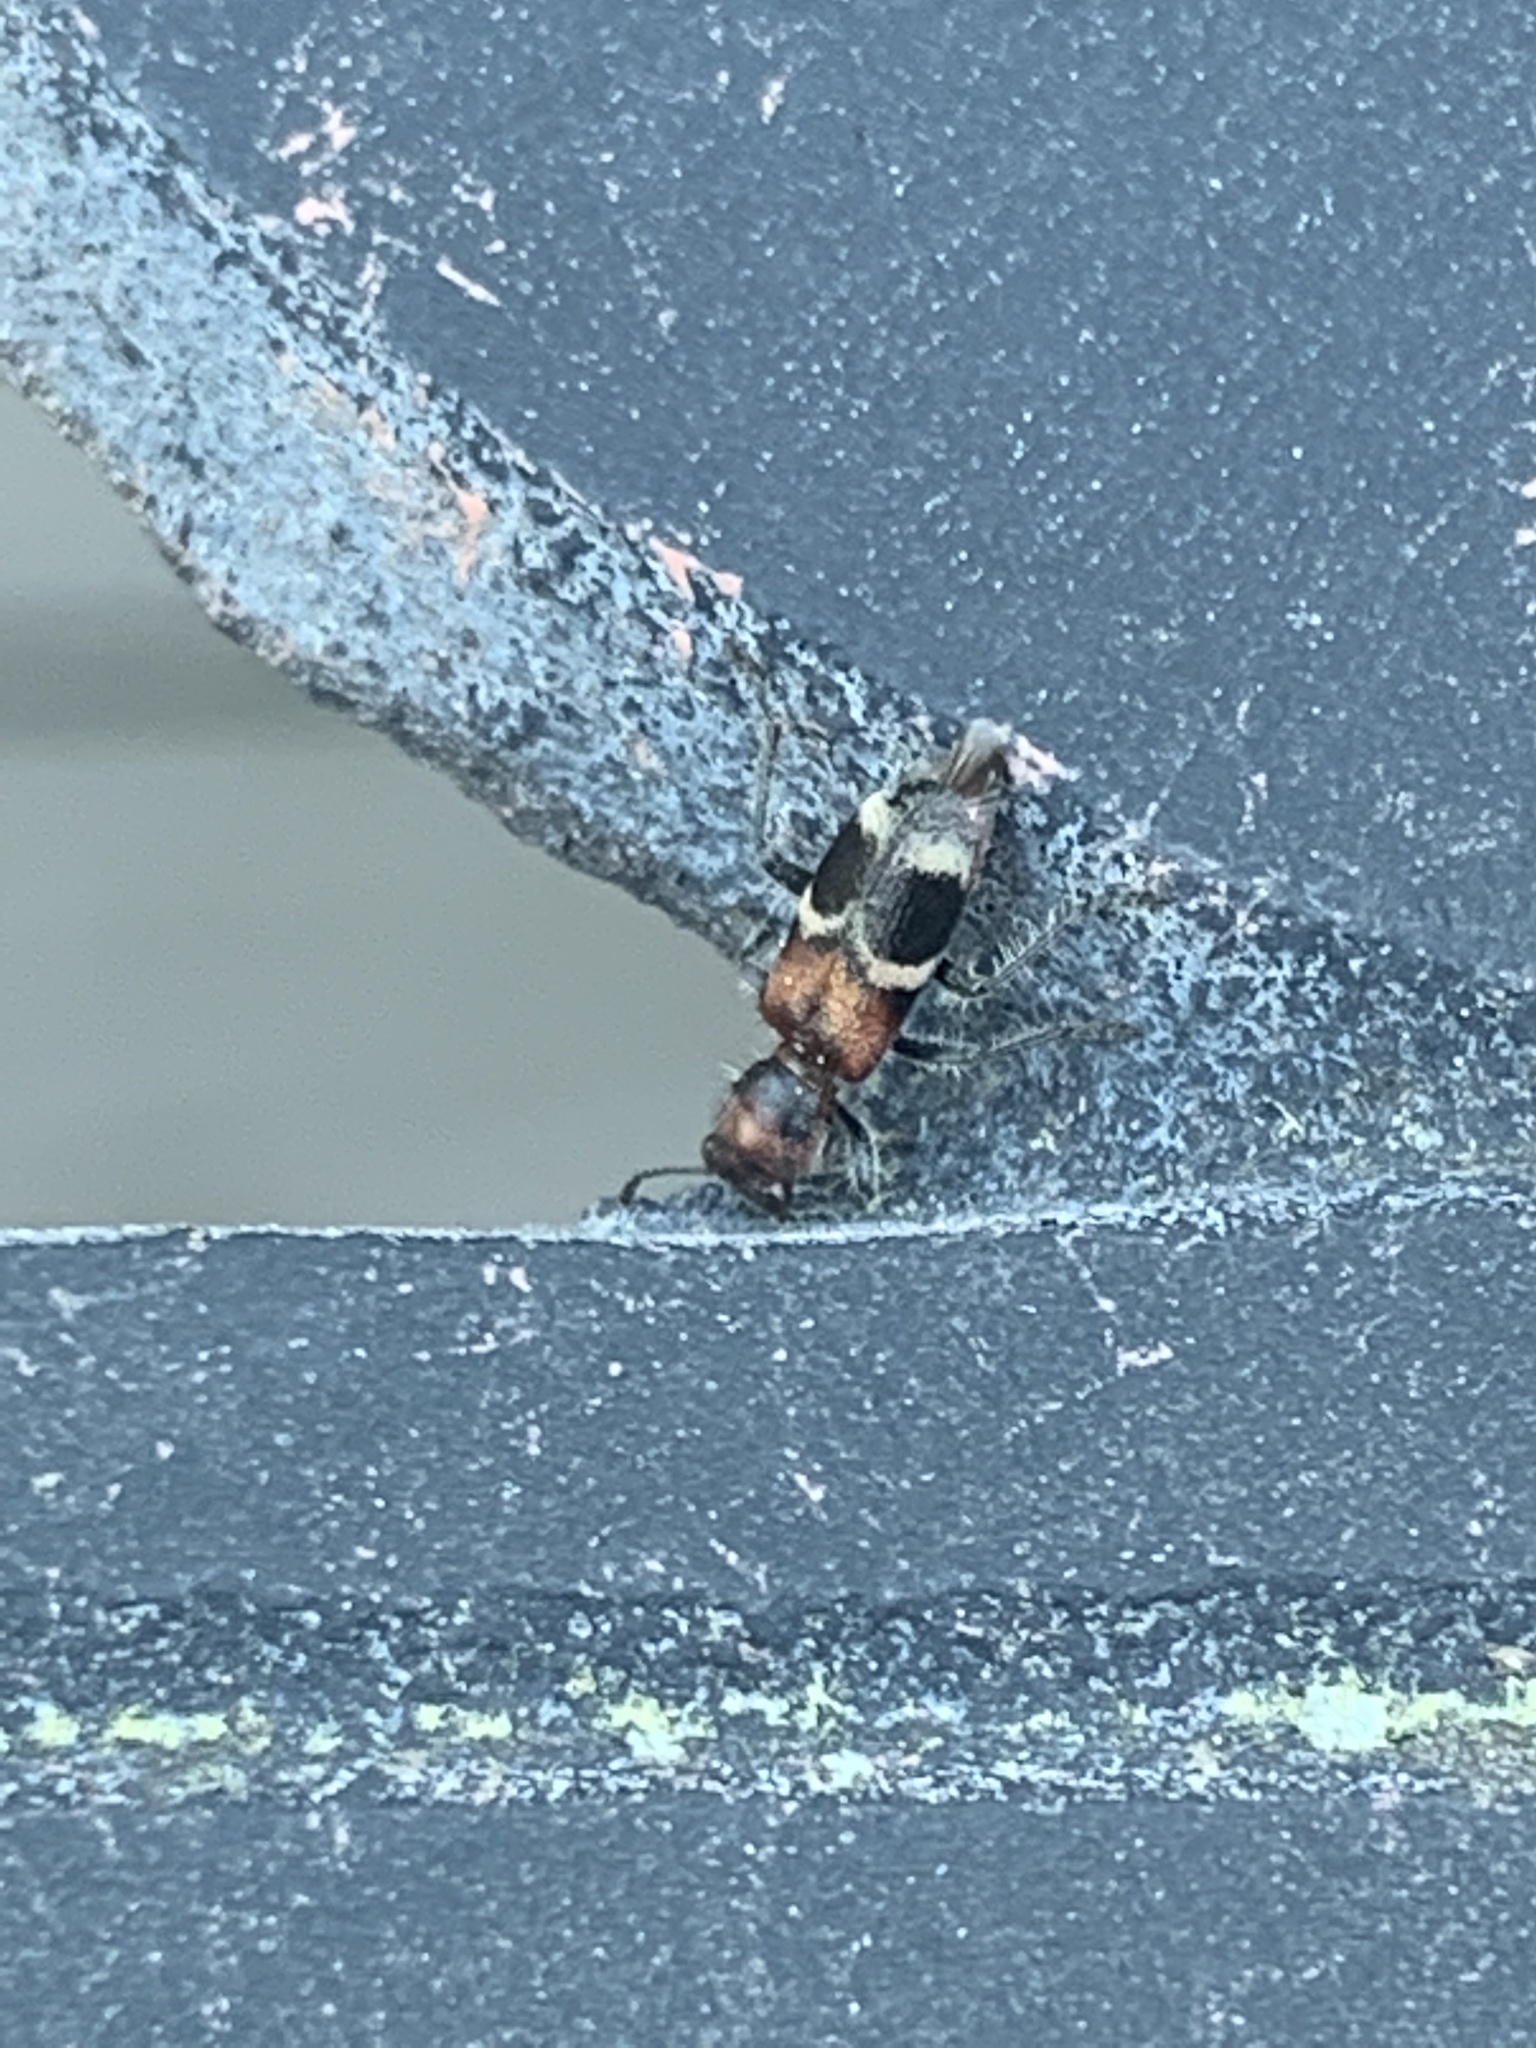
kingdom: Animalia
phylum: Arthropoda
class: Insecta
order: Coleoptera
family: Cleridae
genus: Enoclerus
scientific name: Enoclerus nigripes
